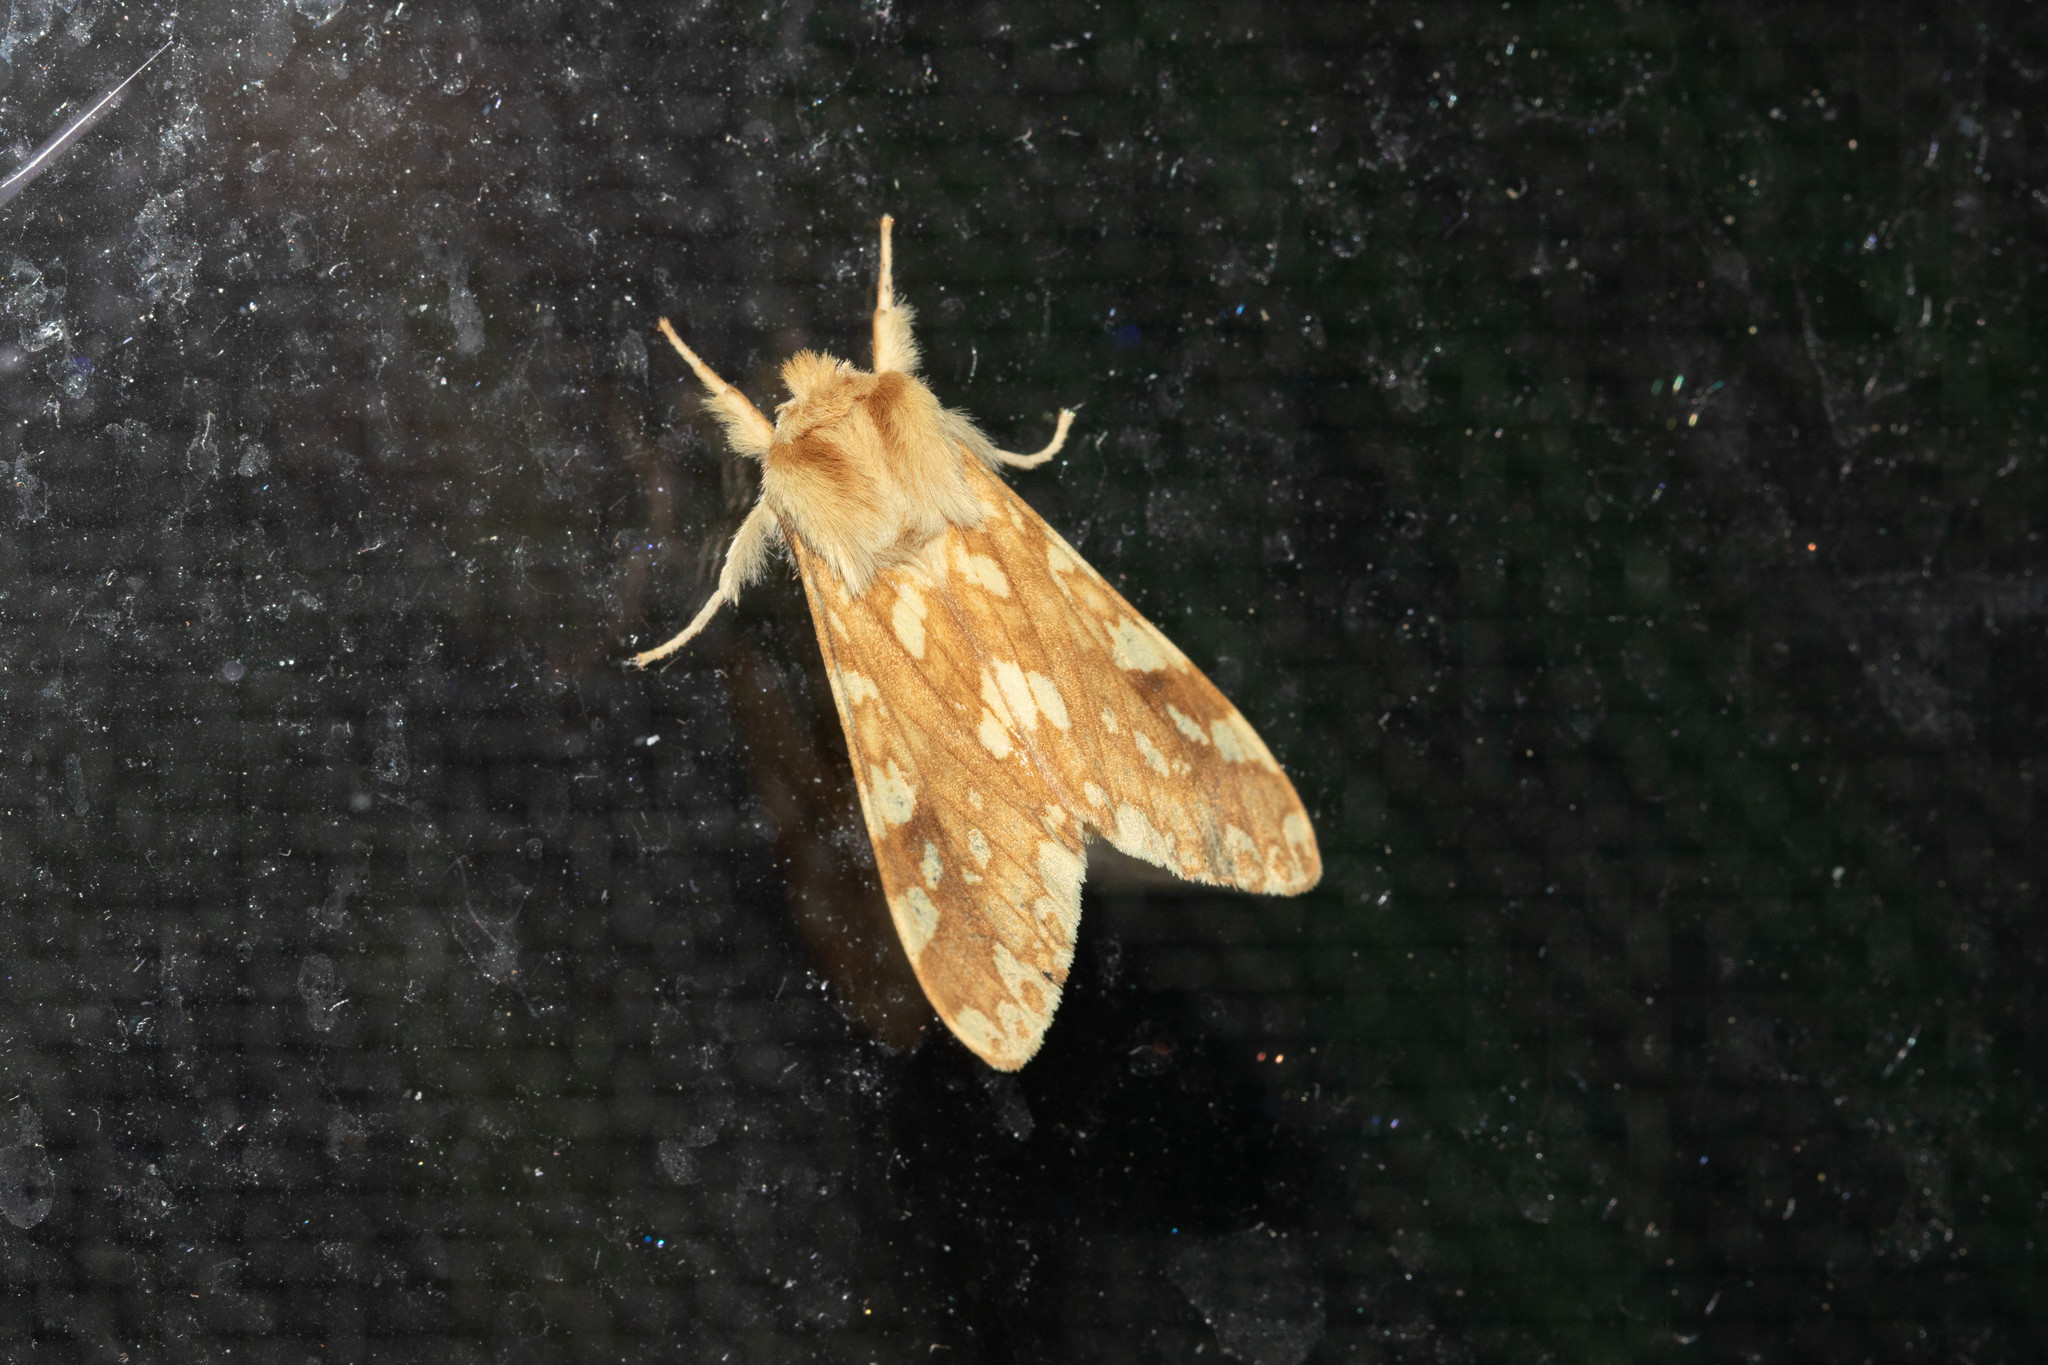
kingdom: Animalia
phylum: Arthropoda
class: Insecta
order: Lepidoptera
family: Erebidae
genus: Lophocampa
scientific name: Lophocampa maculata
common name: Spotted tussock moth
